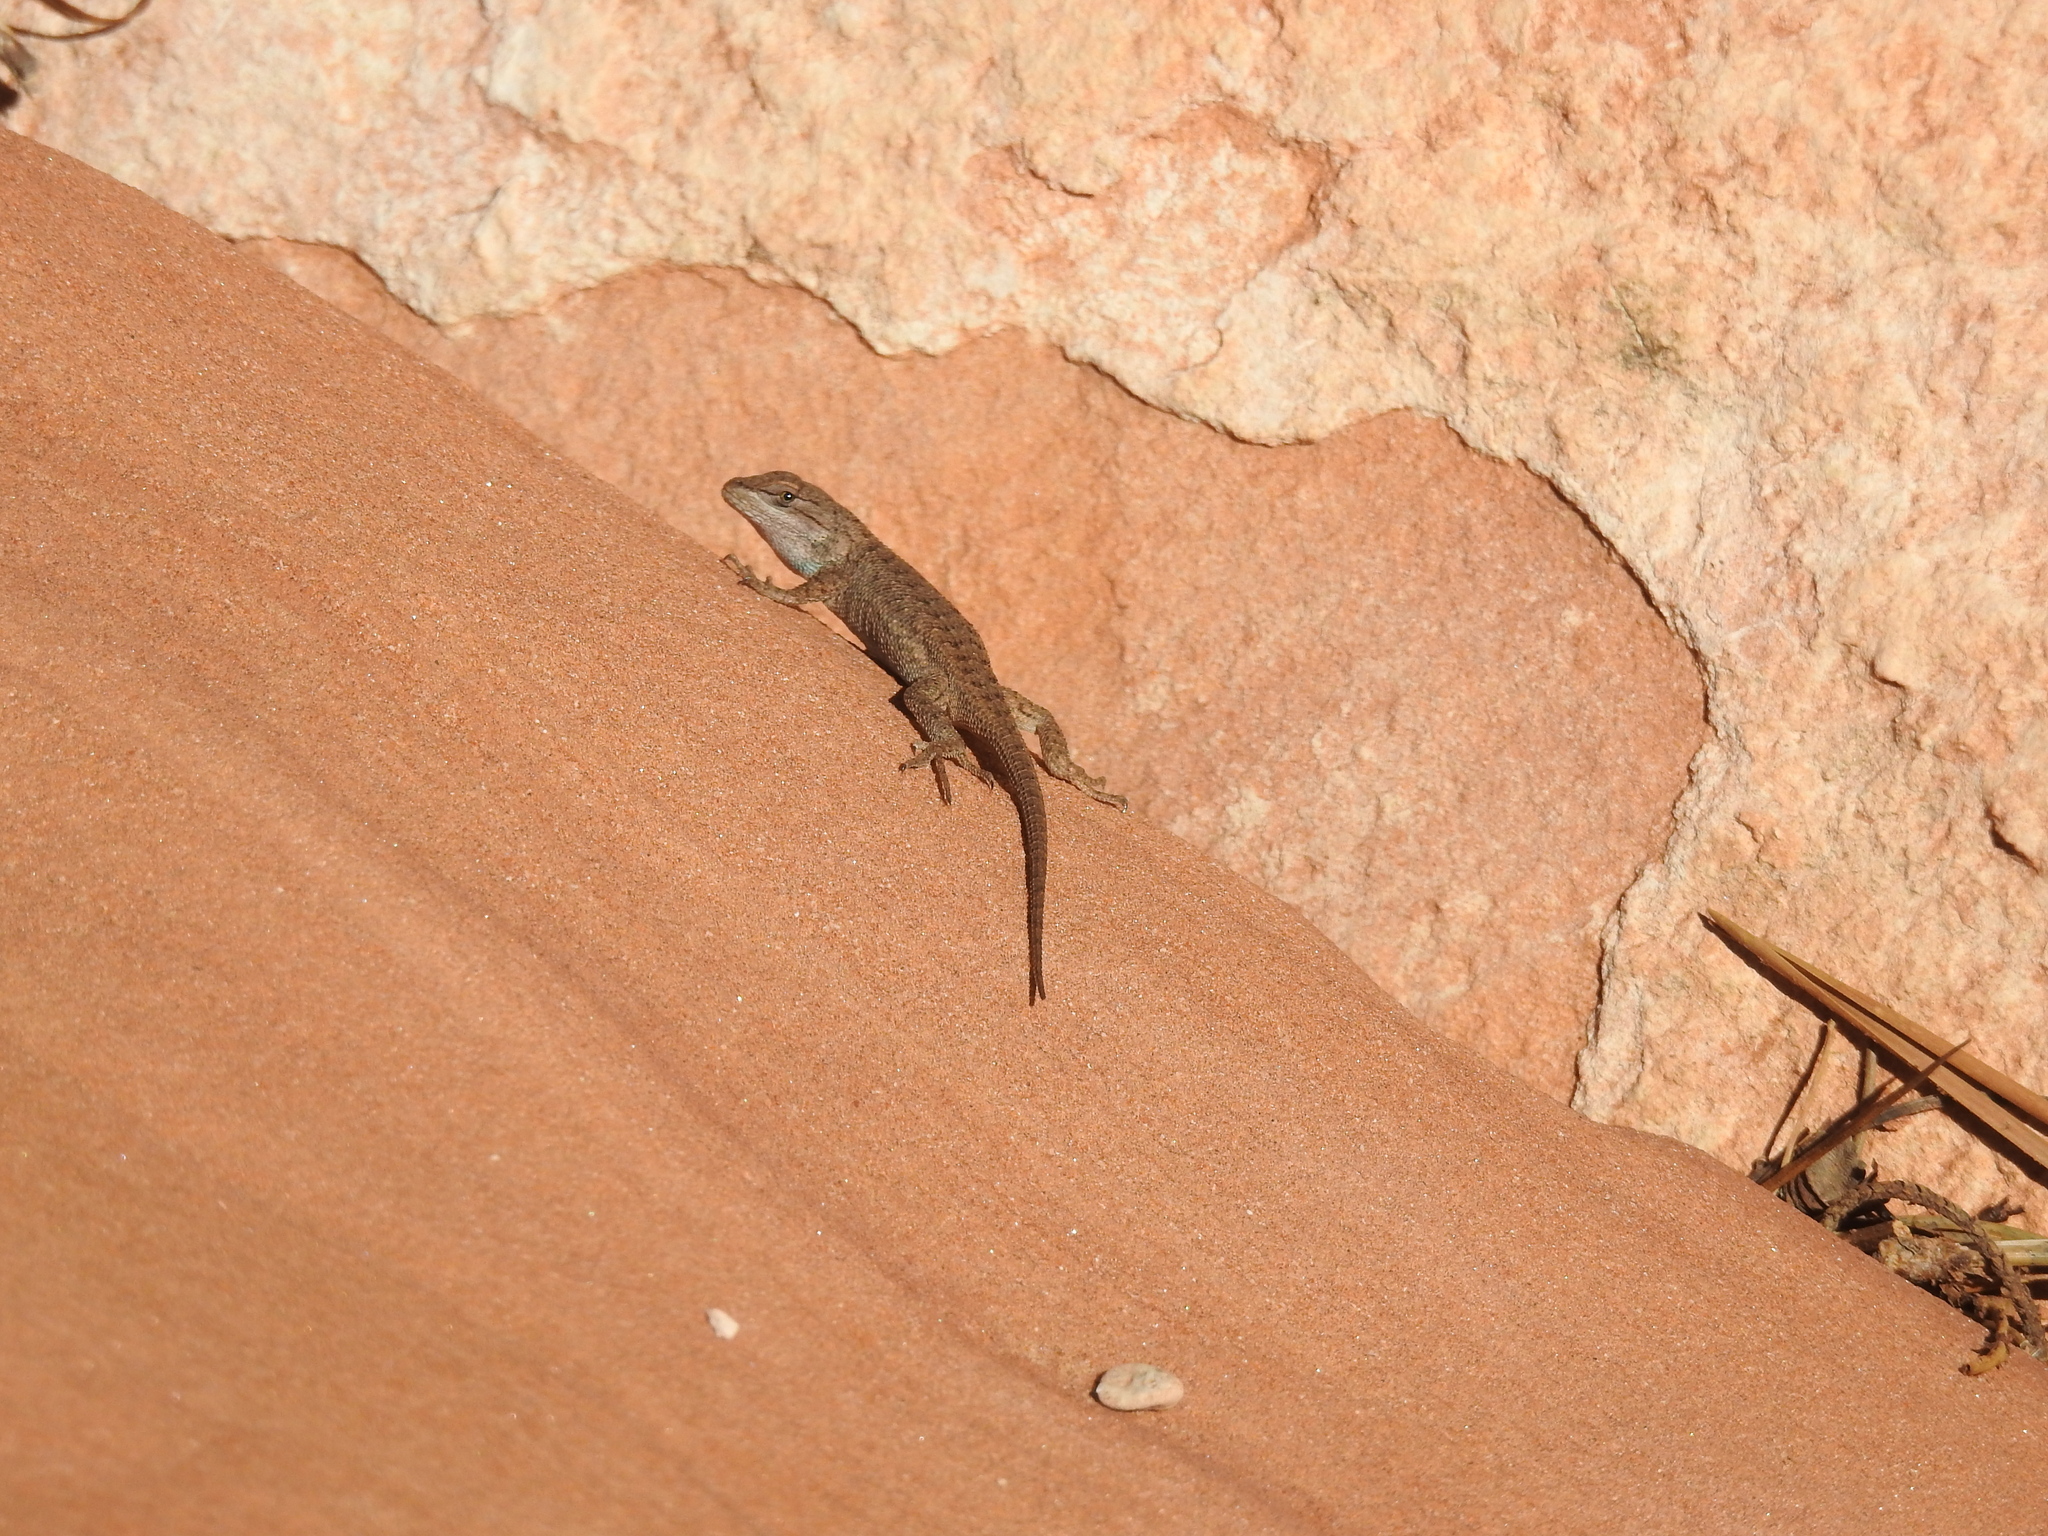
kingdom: Animalia
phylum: Chordata
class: Squamata
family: Phrynosomatidae
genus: Sceloporus
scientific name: Sceloporus tristichus
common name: Plateau fence lizard
